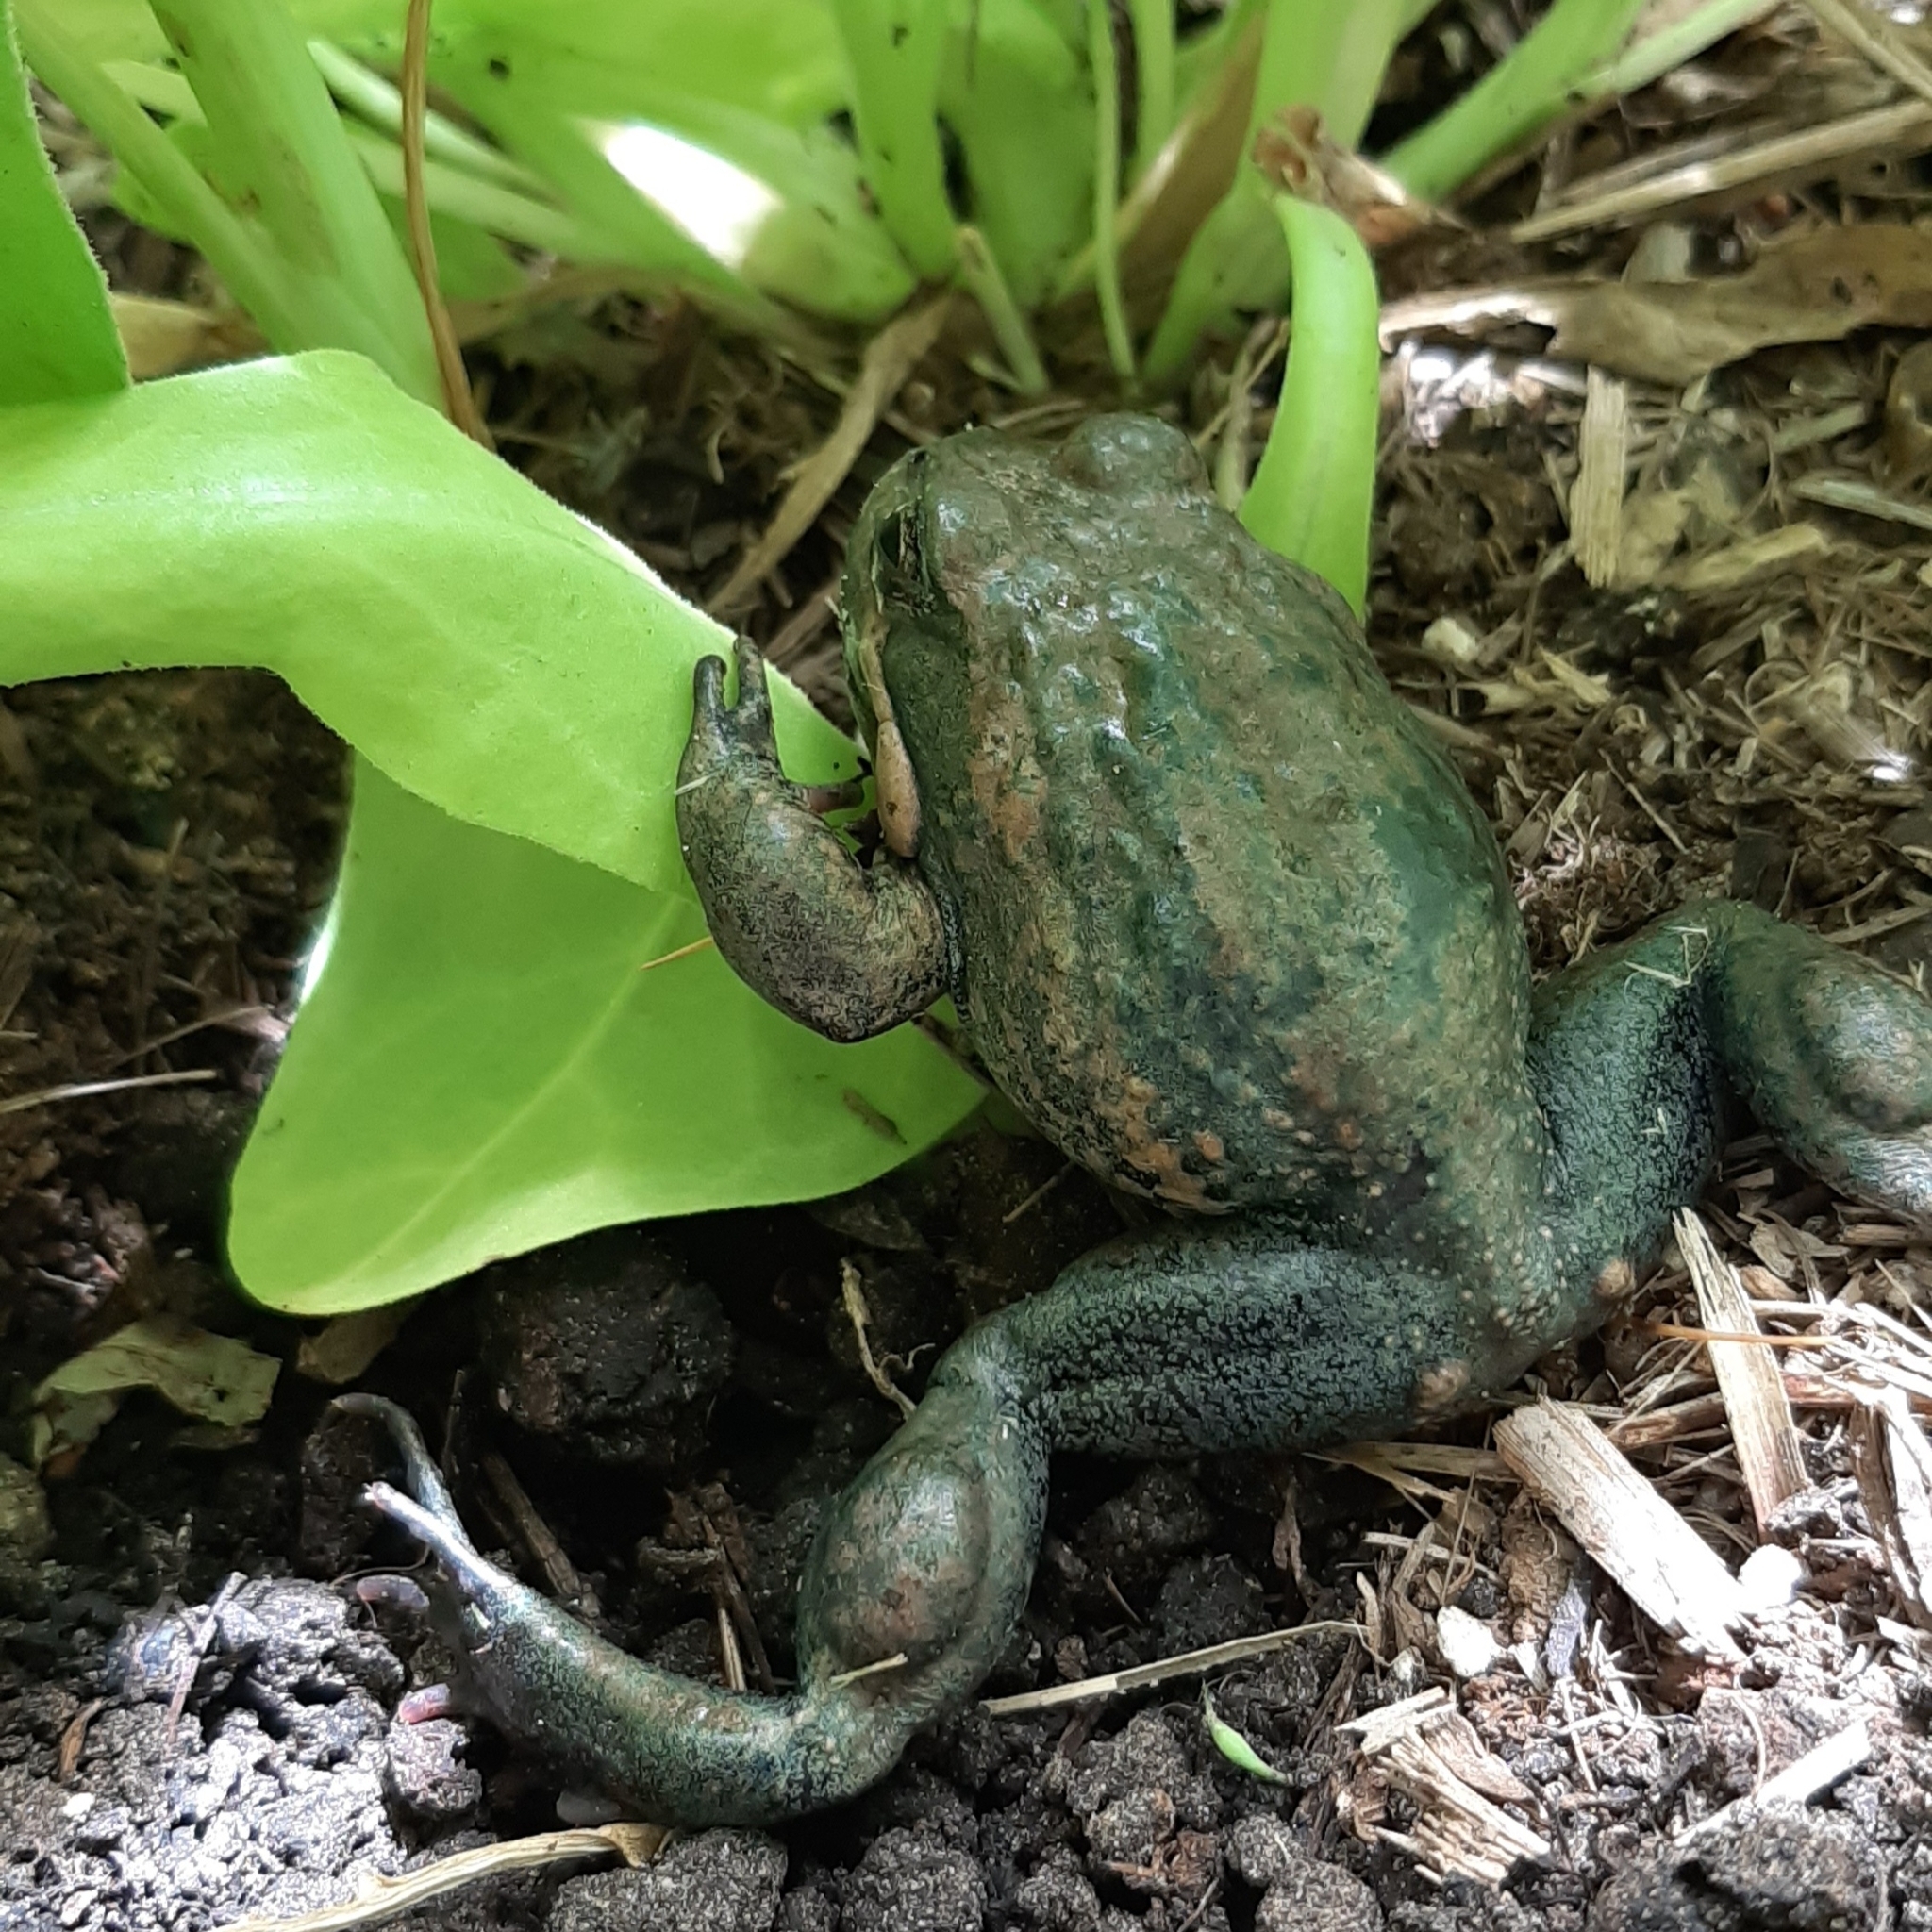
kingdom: Animalia
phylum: Chordata
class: Amphibia
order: Anura
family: Limnodynastidae
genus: Limnodynastes
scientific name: Limnodynastes dumerilii
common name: Banjo frog
